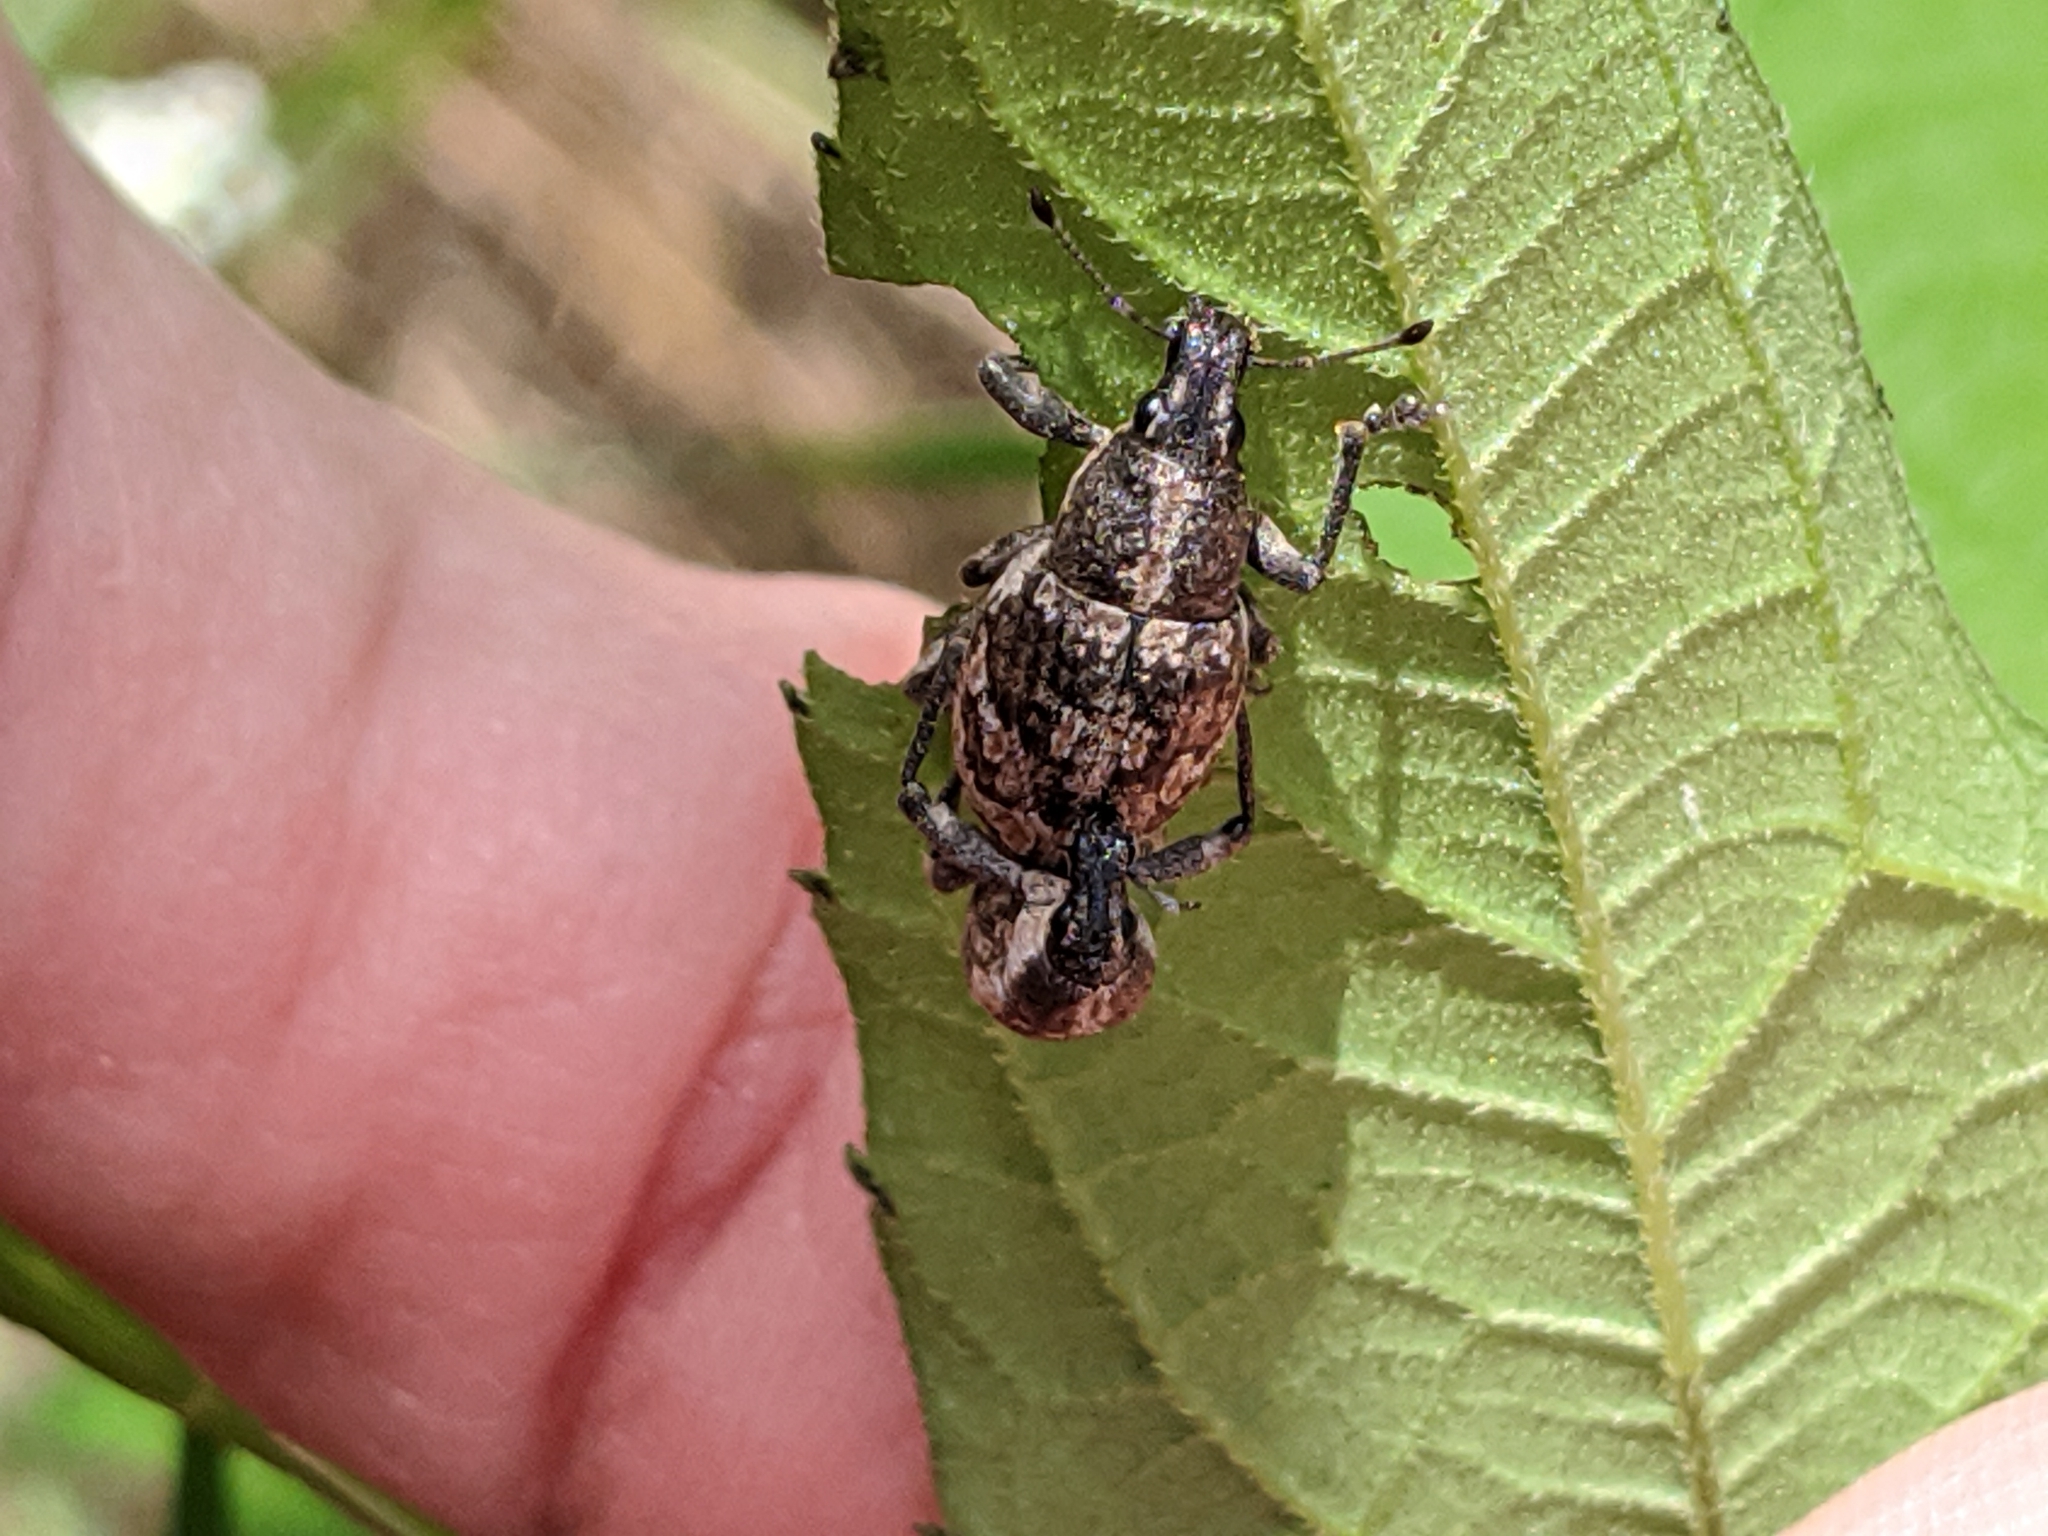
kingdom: Animalia
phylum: Arthropoda
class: Insecta
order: Coleoptera
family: Curculionidae
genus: Epicaerus
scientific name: Epicaerus lepidotus
